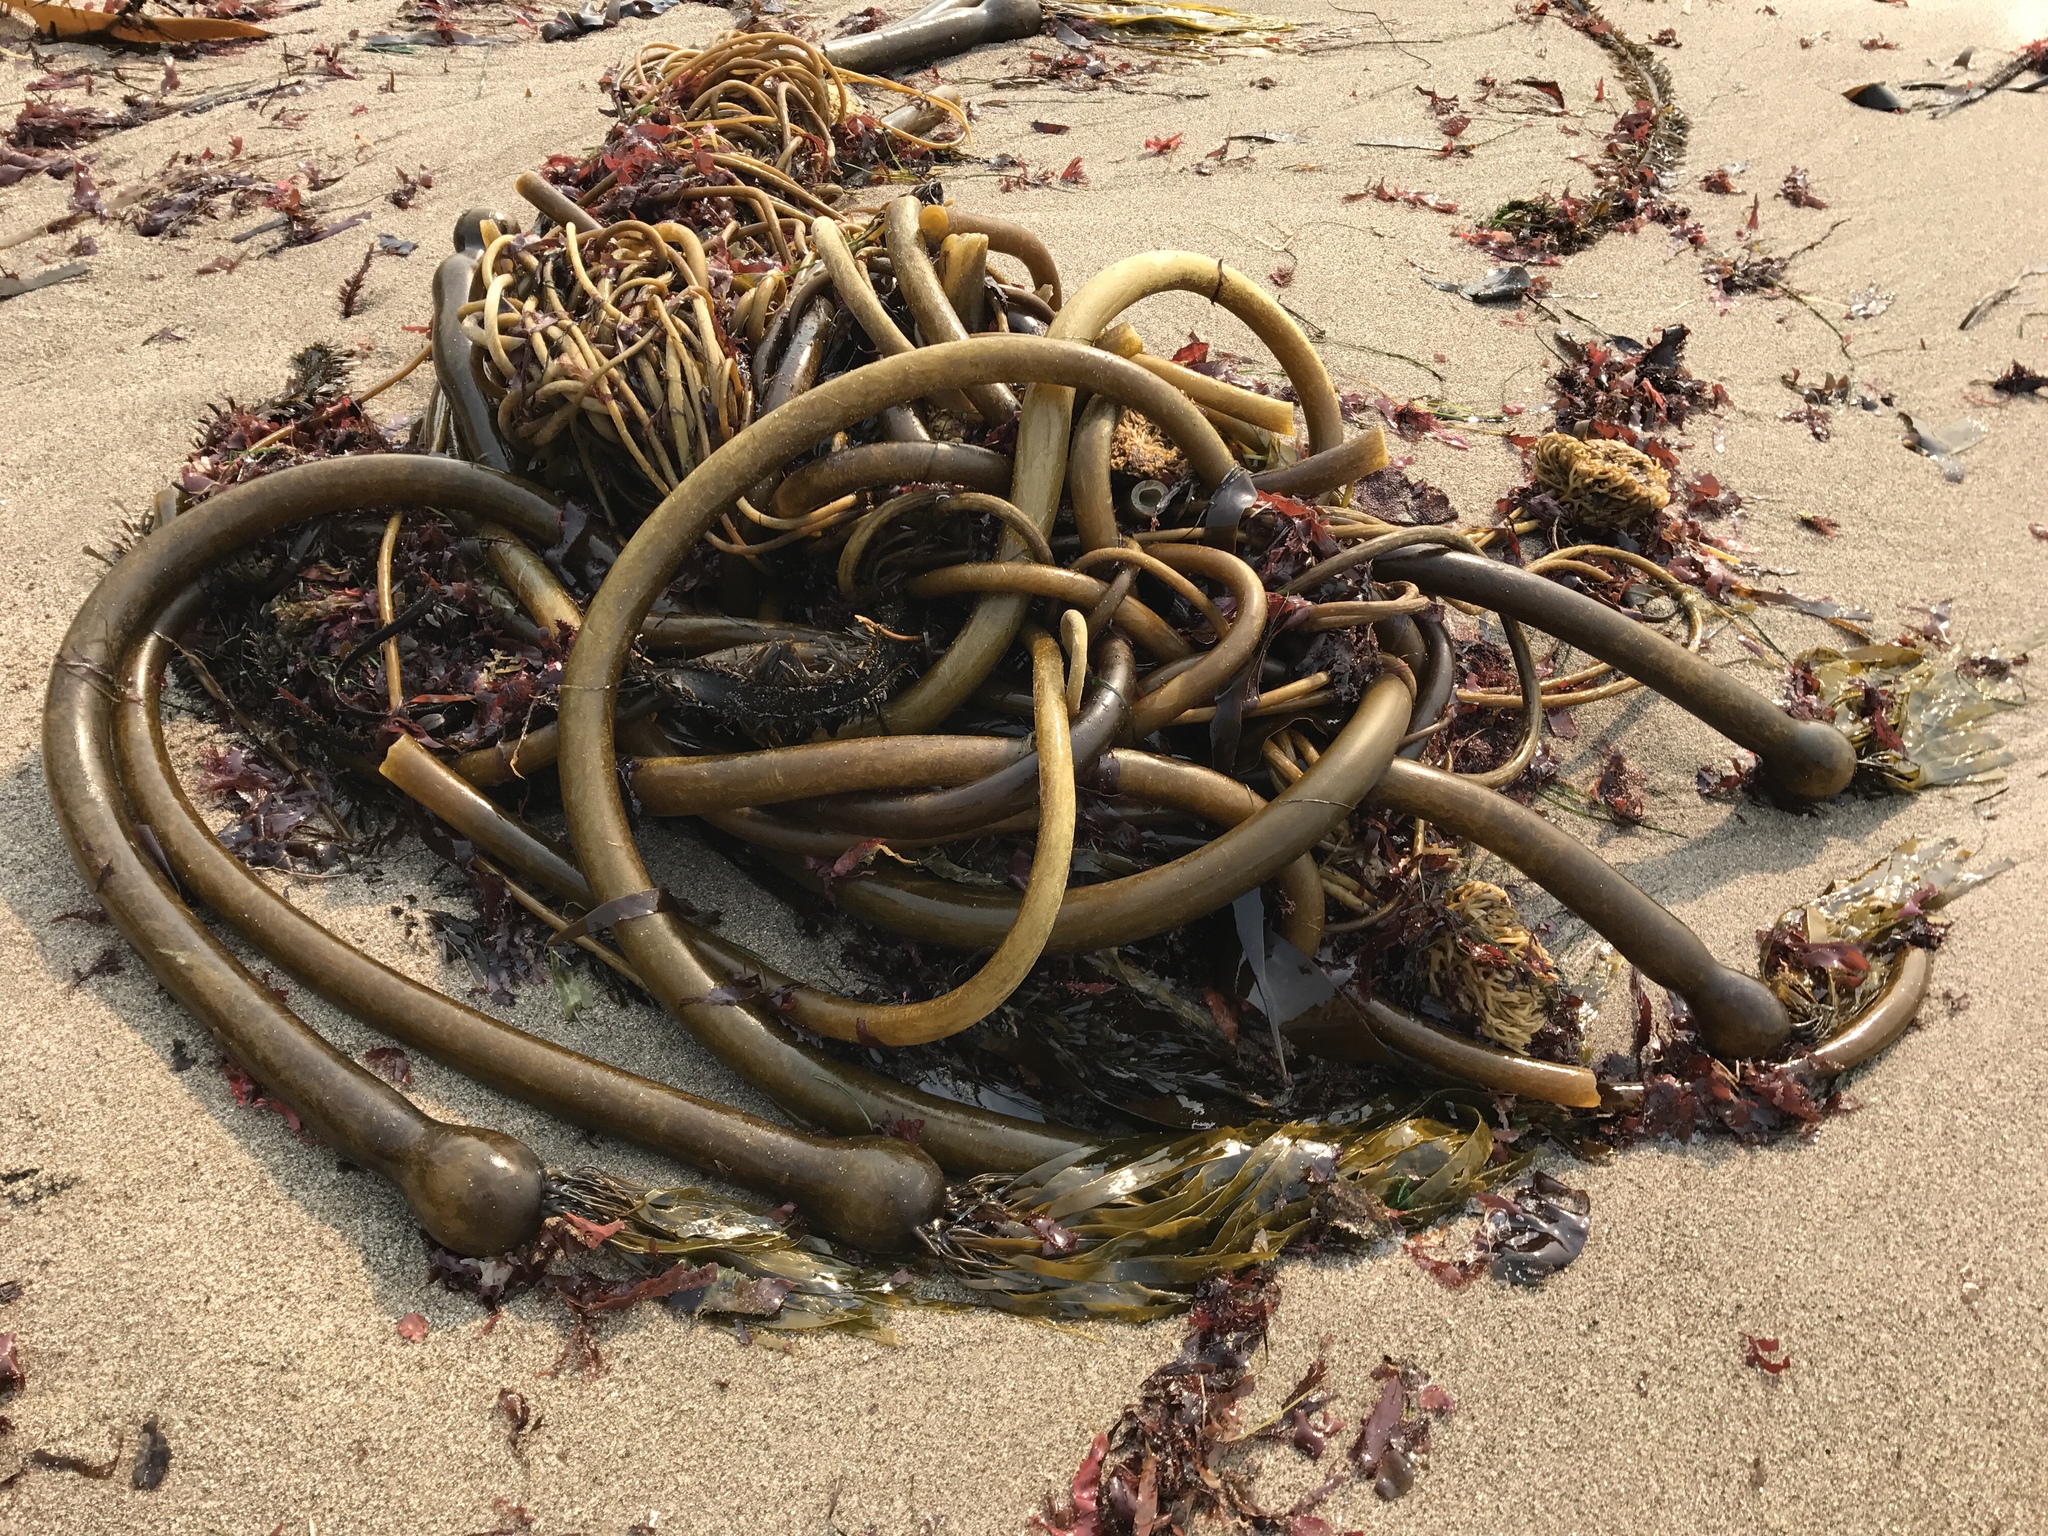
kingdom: Chromista
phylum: Ochrophyta
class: Phaeophyceae
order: Laminariales
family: Laminariaceae
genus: Nereocystis
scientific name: Nereocystis luetkeana
